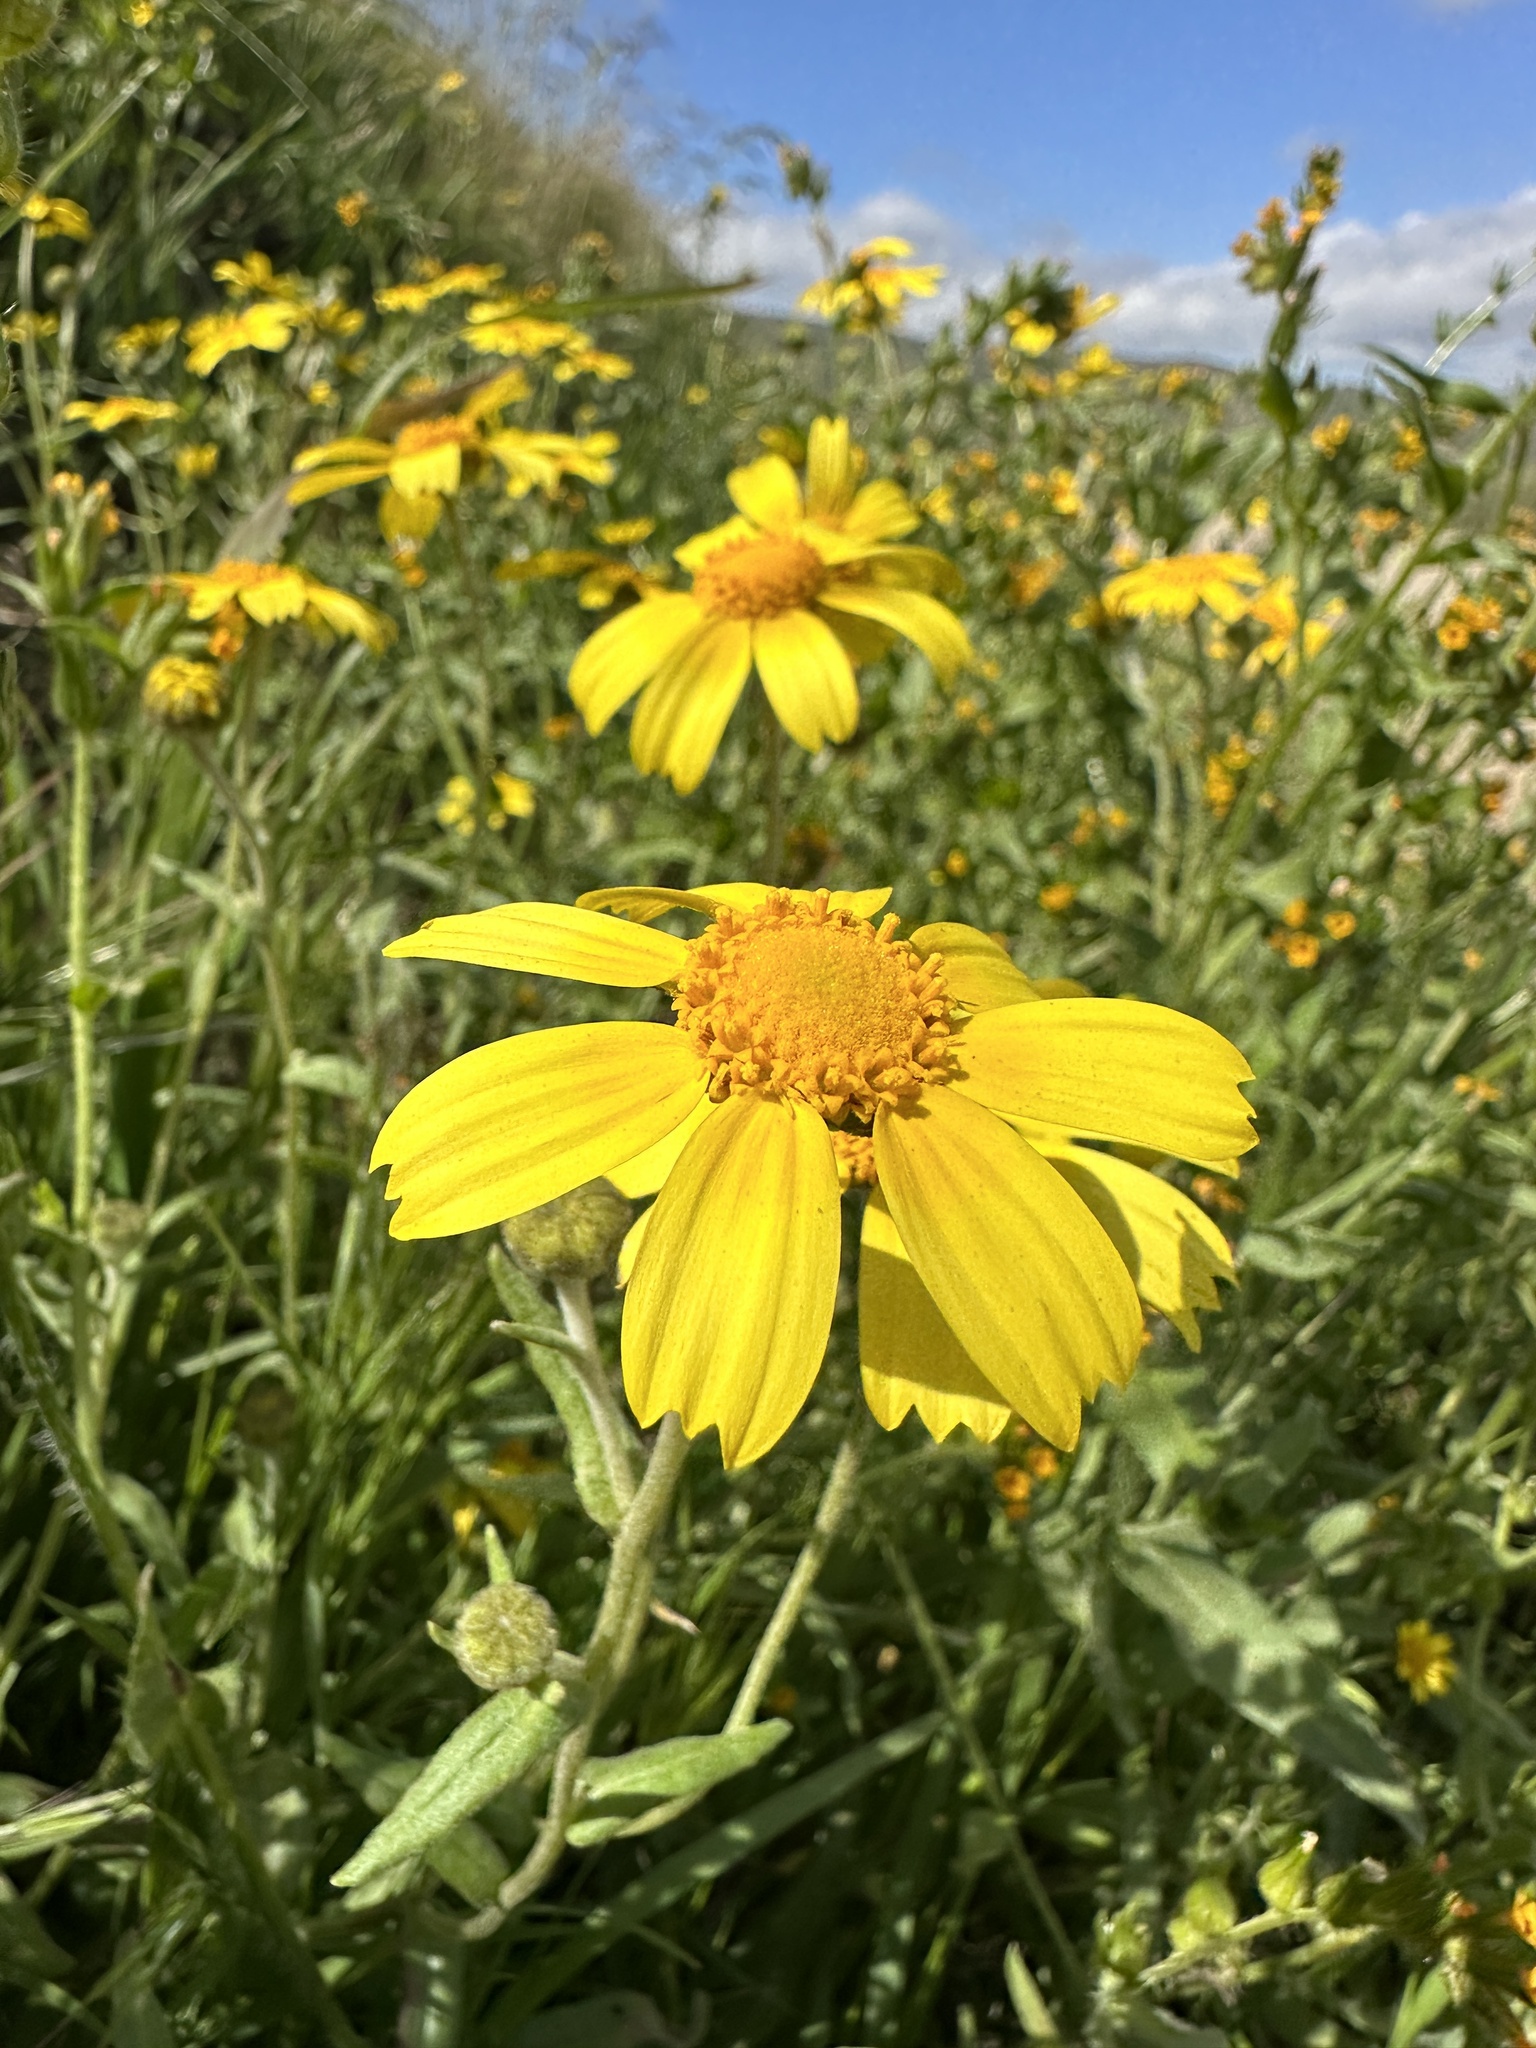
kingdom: Plantae
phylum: Tracheophyta
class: Magnoliopsida
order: Asterales
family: Asteraceae
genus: Monolopia
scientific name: Monolopia lanceolata
